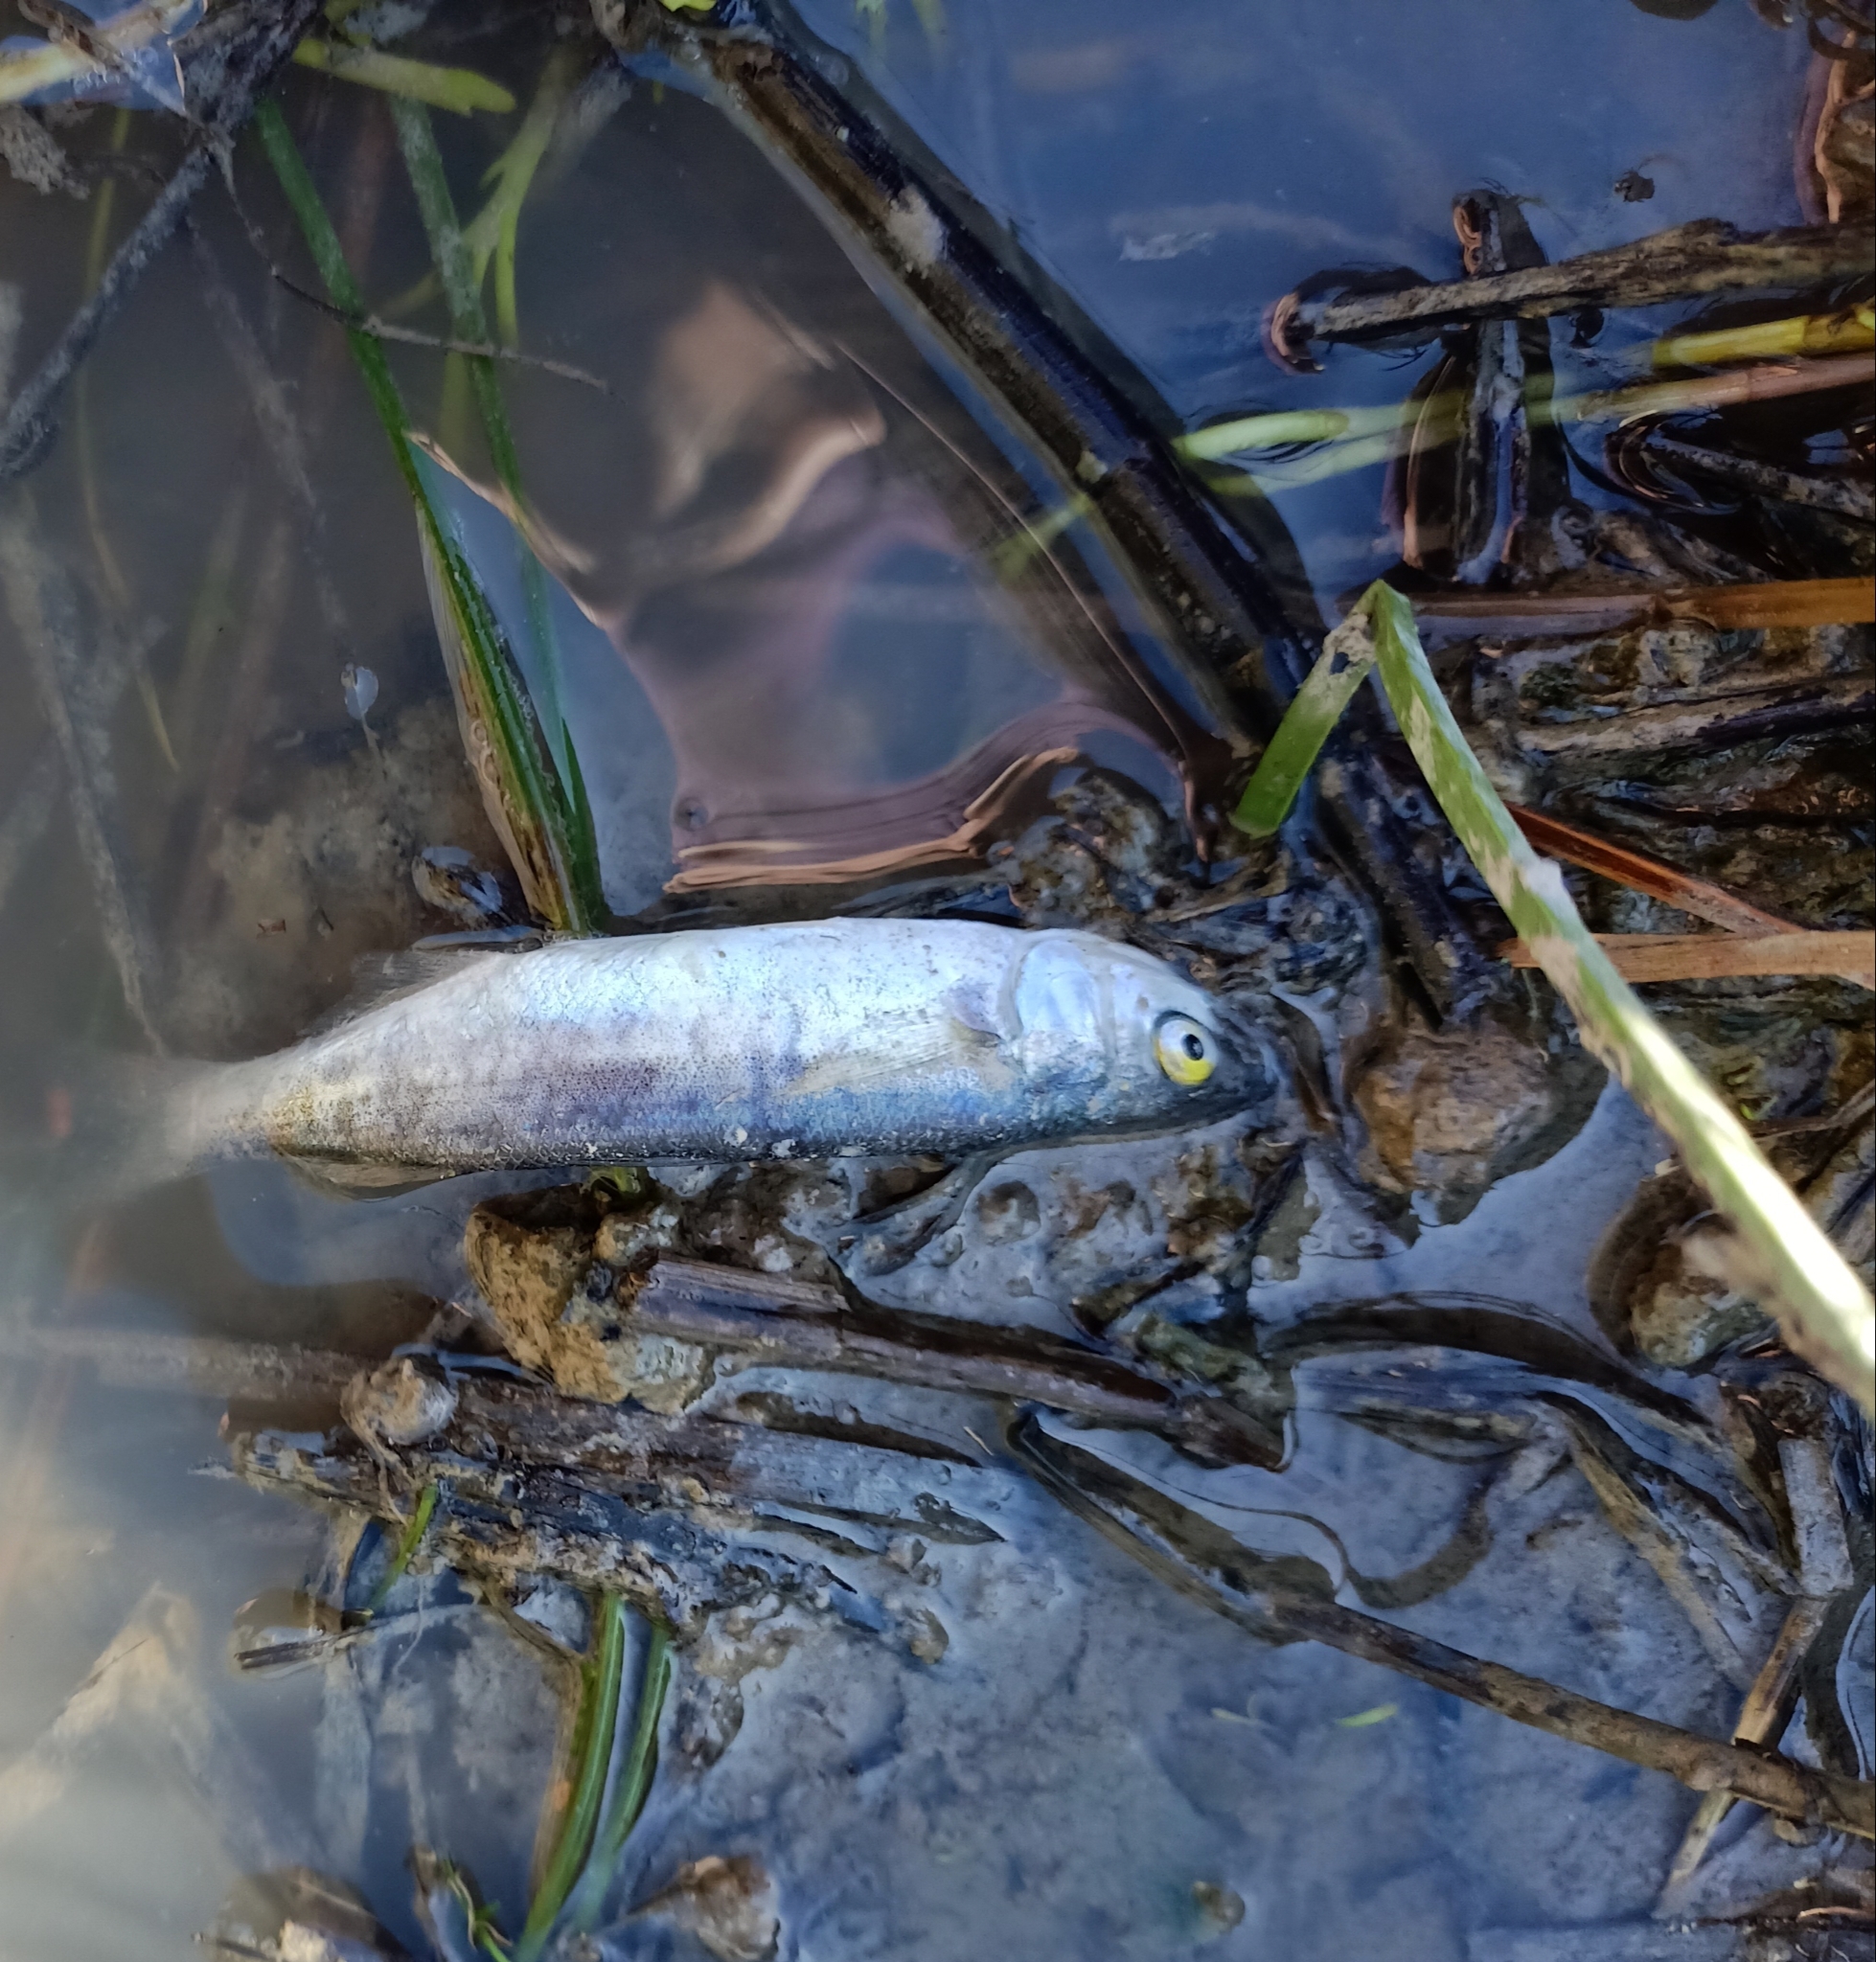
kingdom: Animalia
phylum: Chordata
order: Mugiliformes
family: Mugilidae
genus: Aldrichetta
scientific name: Aldrichetta forsteri
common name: Yellow-eye mullet
